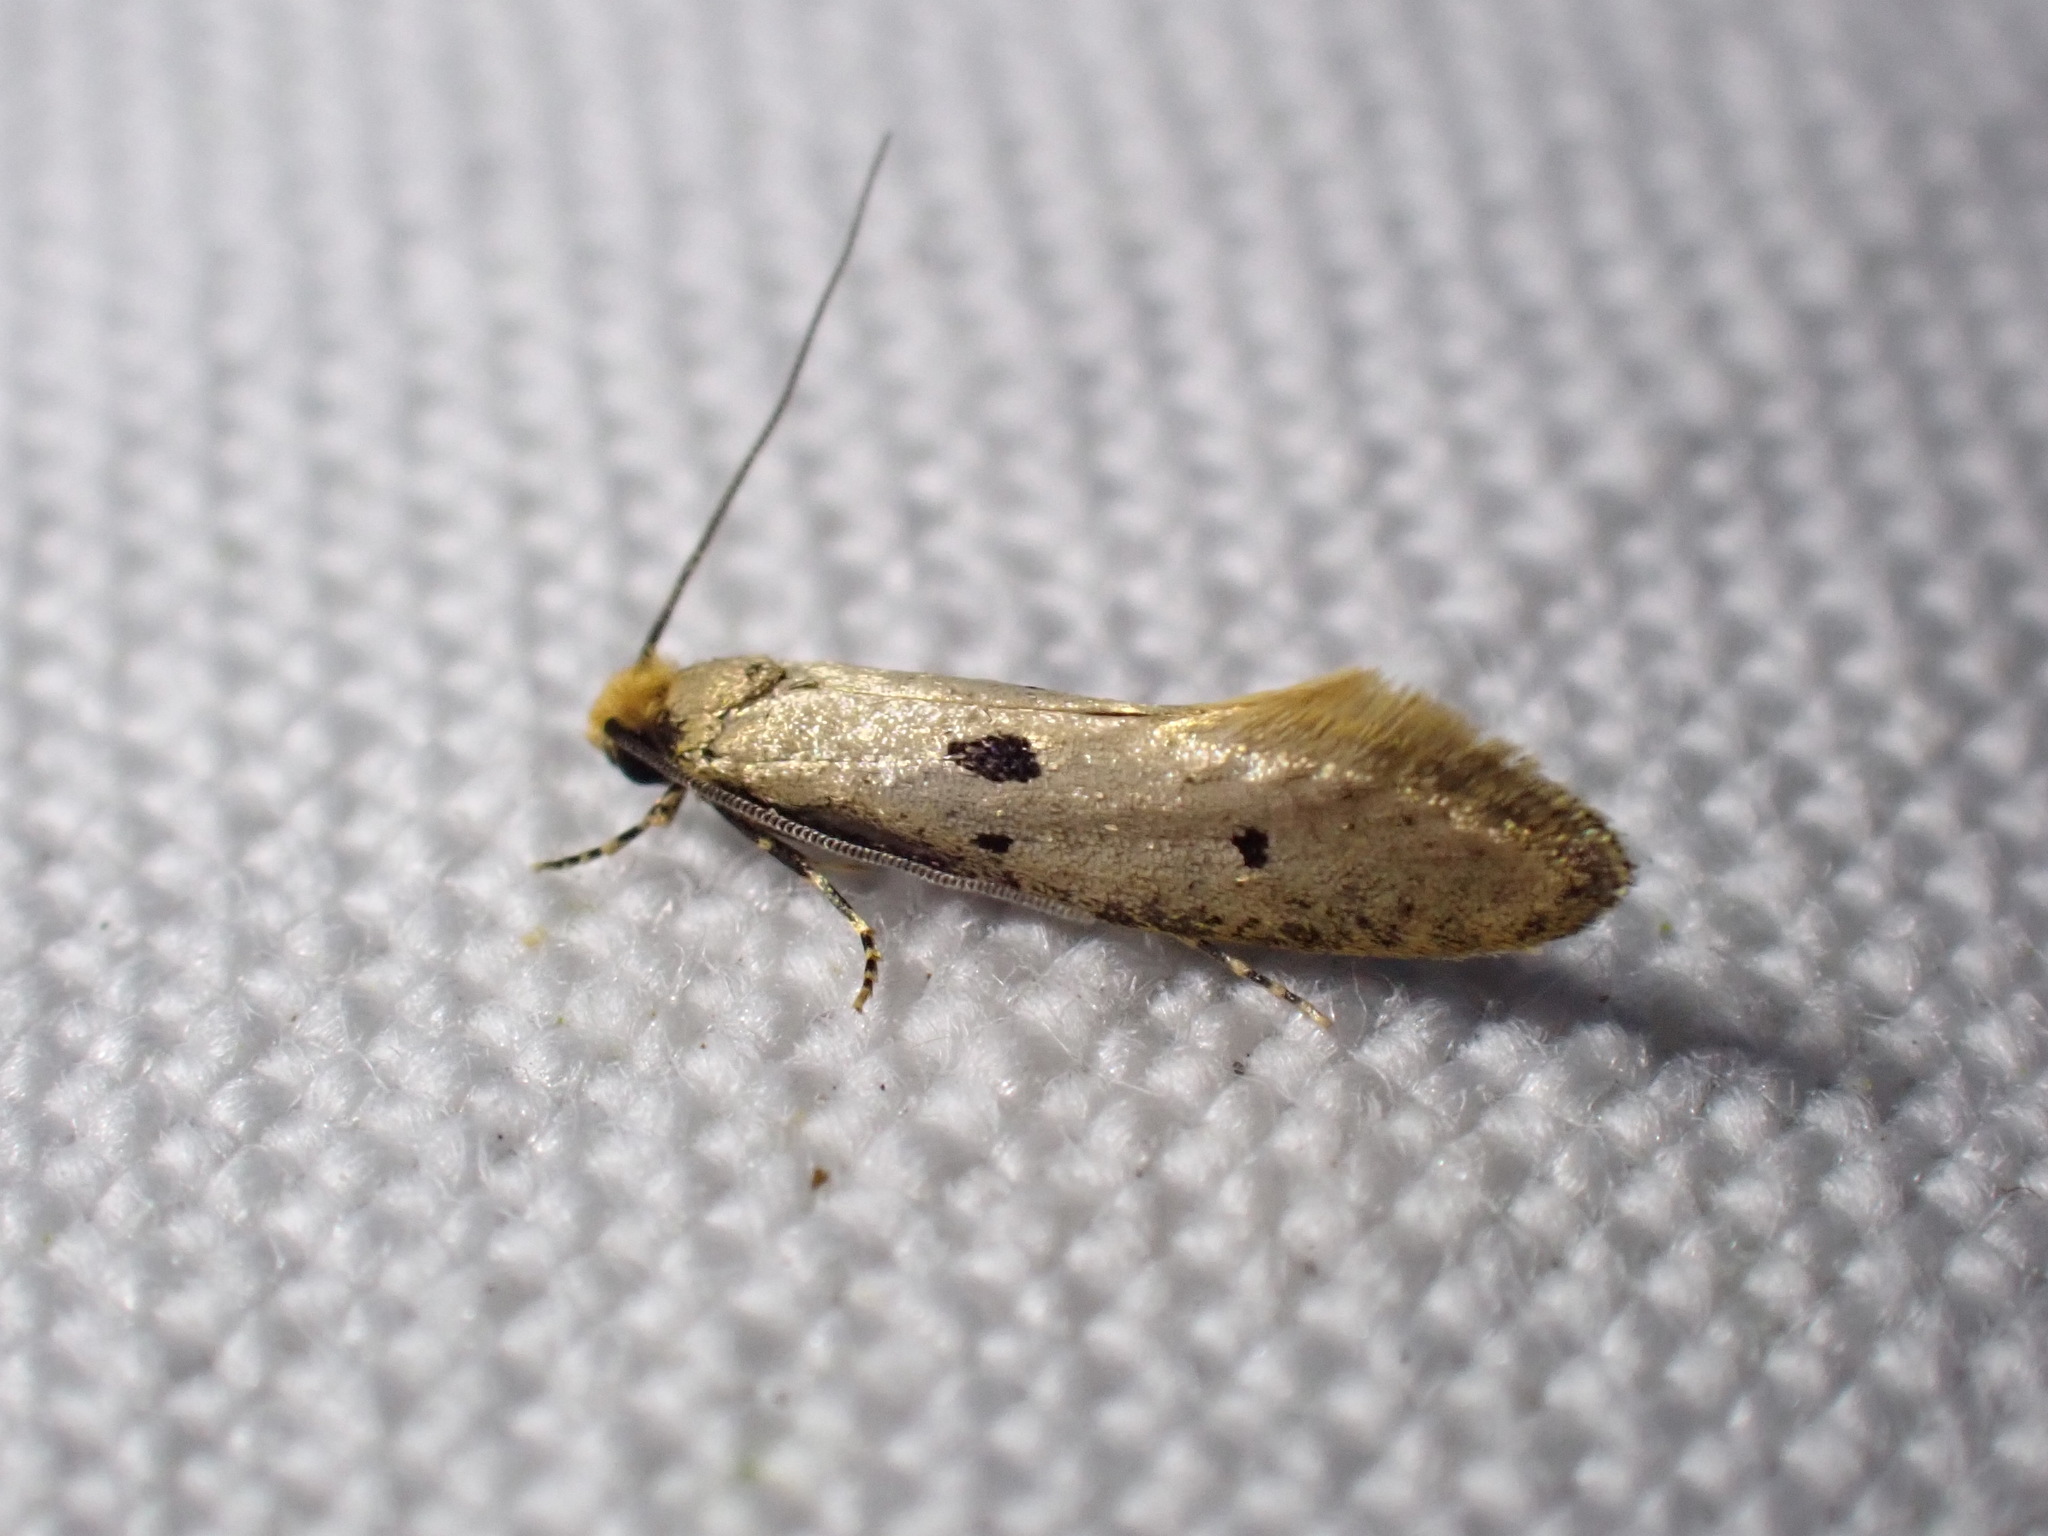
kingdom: Animalia
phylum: Arthropoda
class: Insecta
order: Lepidoptera
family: Tineidae
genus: Tinea
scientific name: Tinea trinotella
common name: Bird's-nest moth
